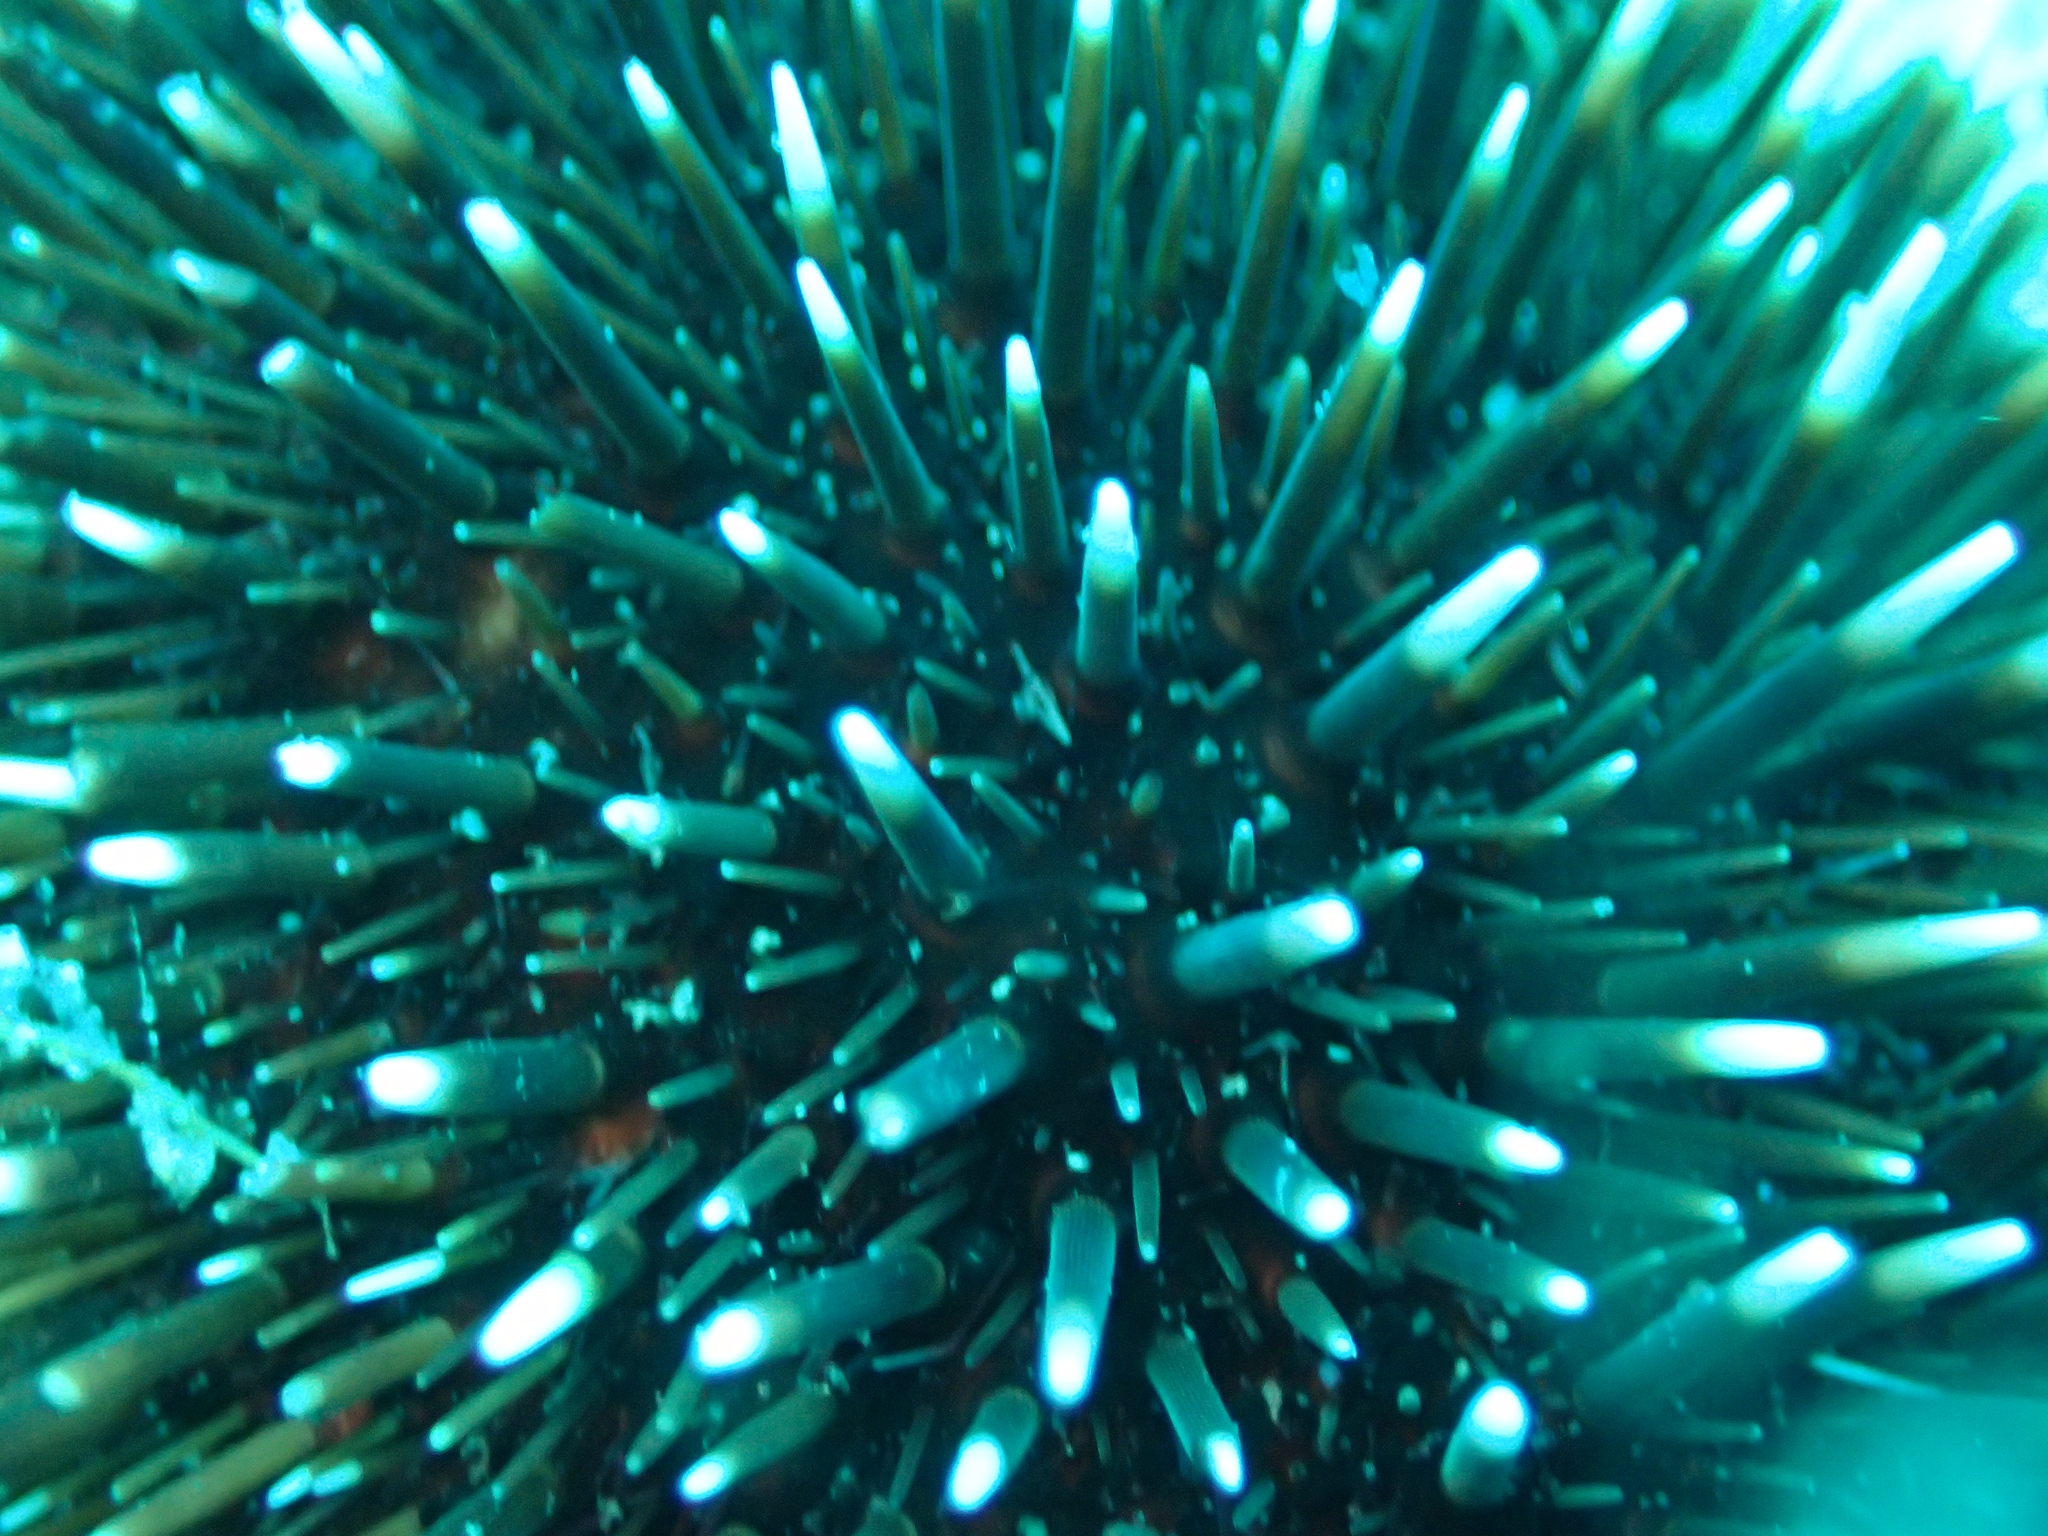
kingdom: Animalia
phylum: Echinodermata
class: Echinoidea
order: Camarodonta
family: Toxopneustidae
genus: Sphaerechinus
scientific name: Sphaerechinus granularis
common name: Violet sea urchin
